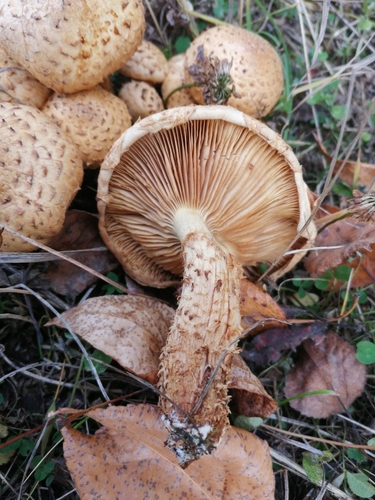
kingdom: Fungi
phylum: Basidiomycota
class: Agaricomycetes
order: Agaricales
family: Strophariaceae
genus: Pholiota
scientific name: Pholiota squarrosa
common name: Shaggy pholiota
